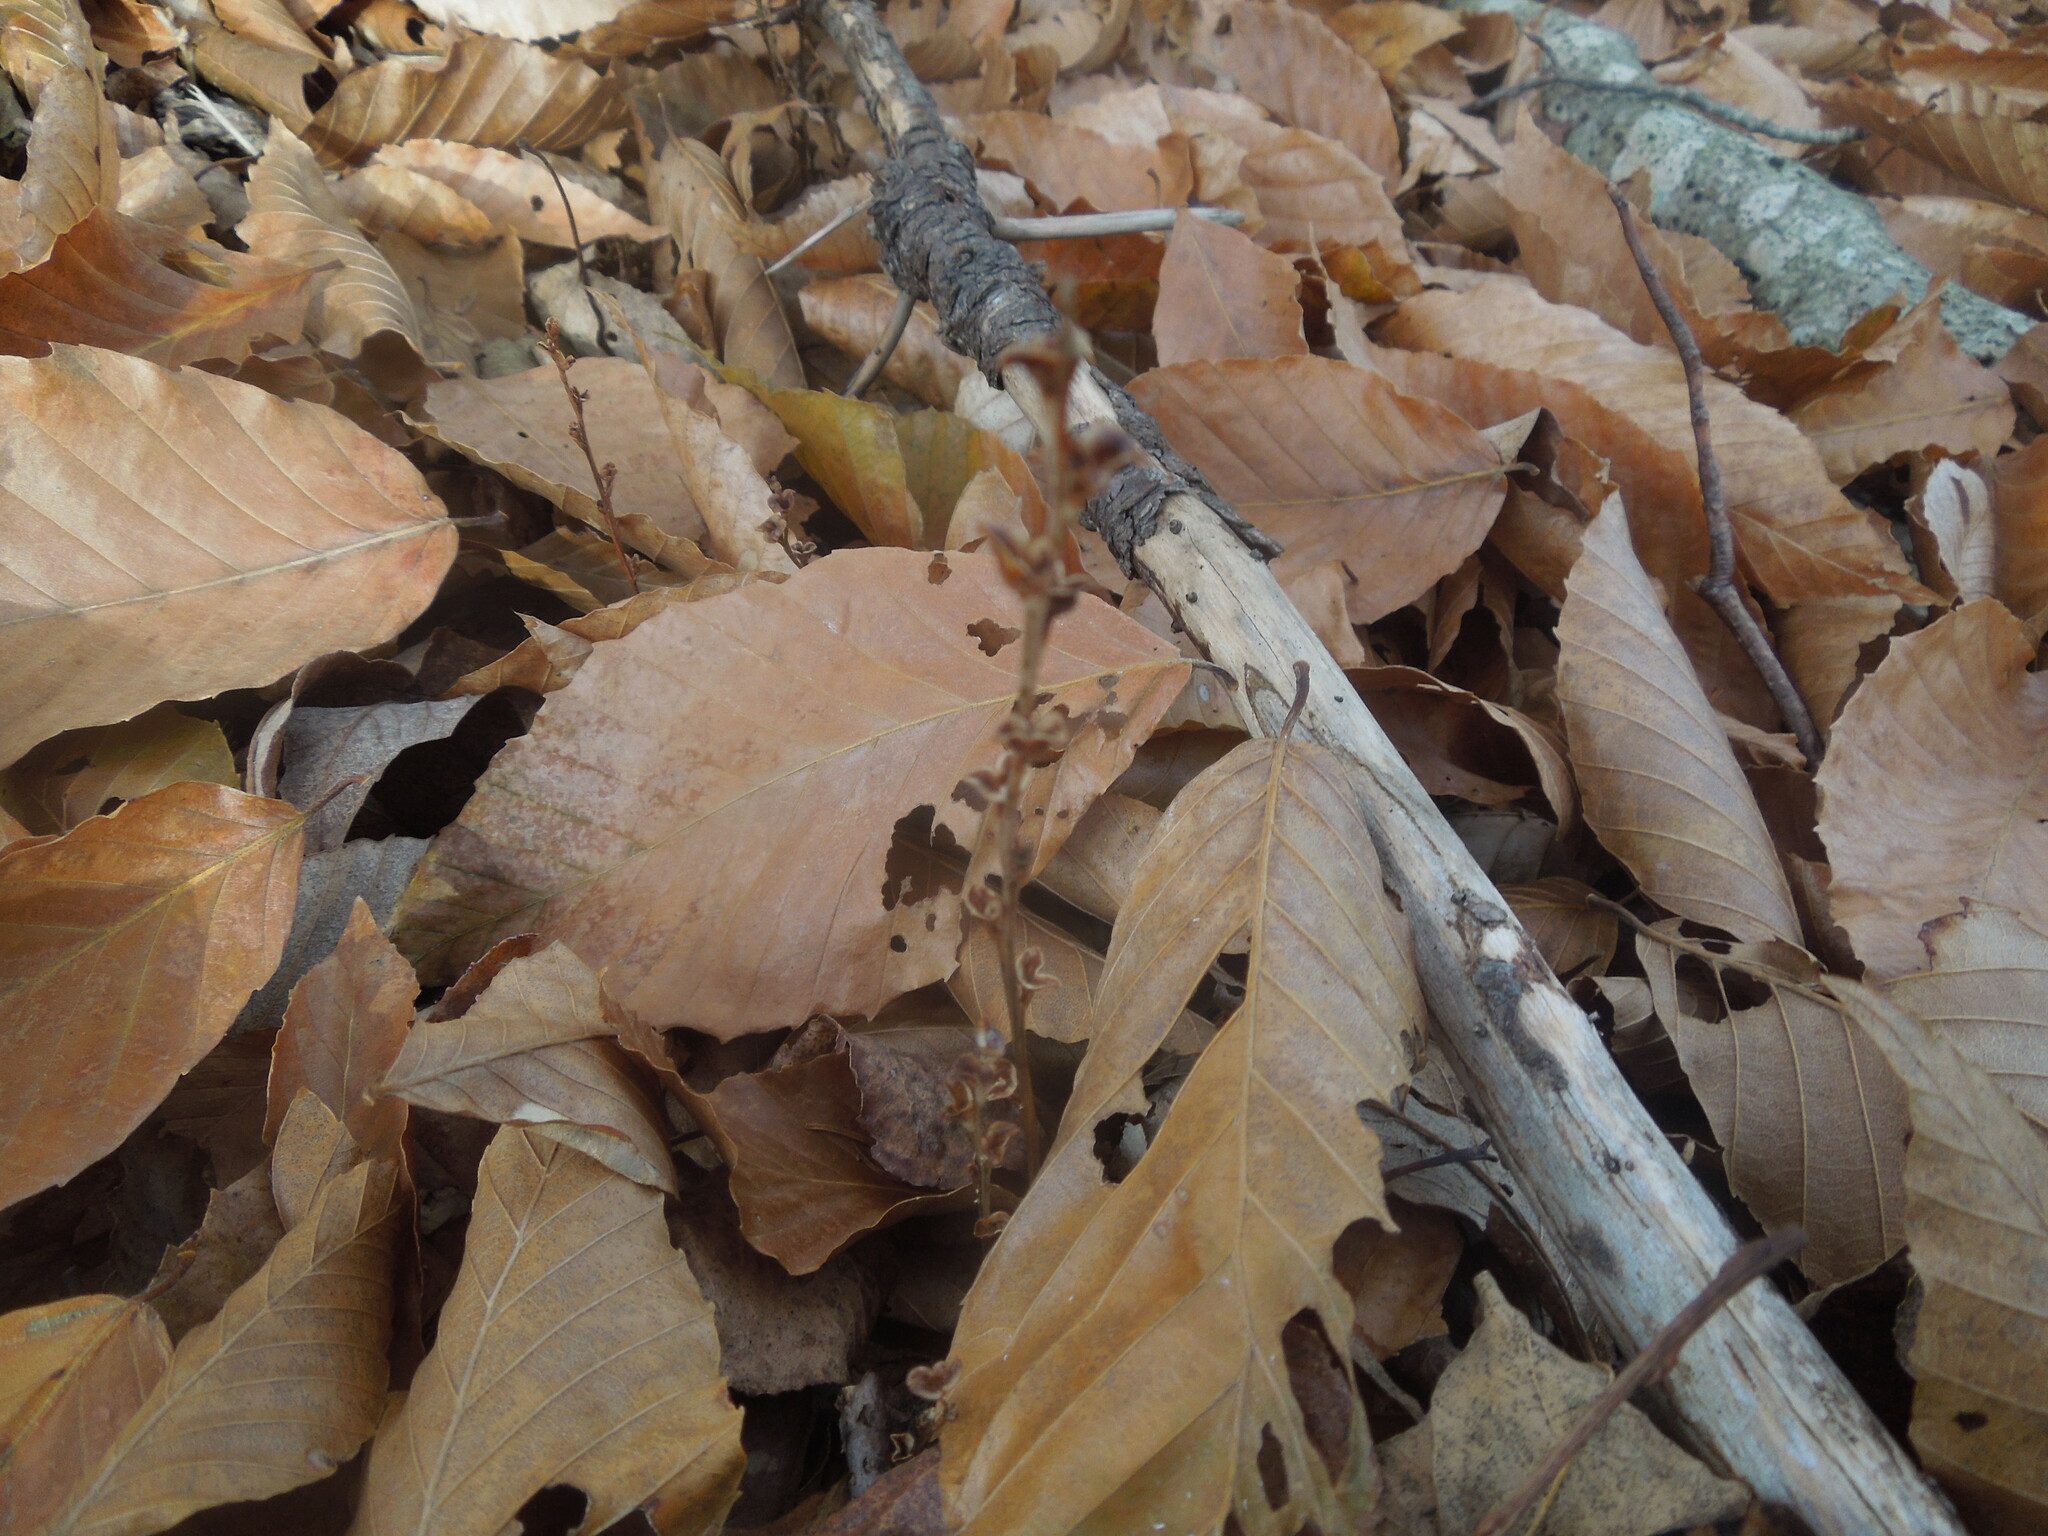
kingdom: Plantae
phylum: Tracheophyta
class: Magnoliopsida
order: Lamiales
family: Orobanchaceae
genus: Epifagus
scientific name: Epifagus virginiana
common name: Beechdrops
